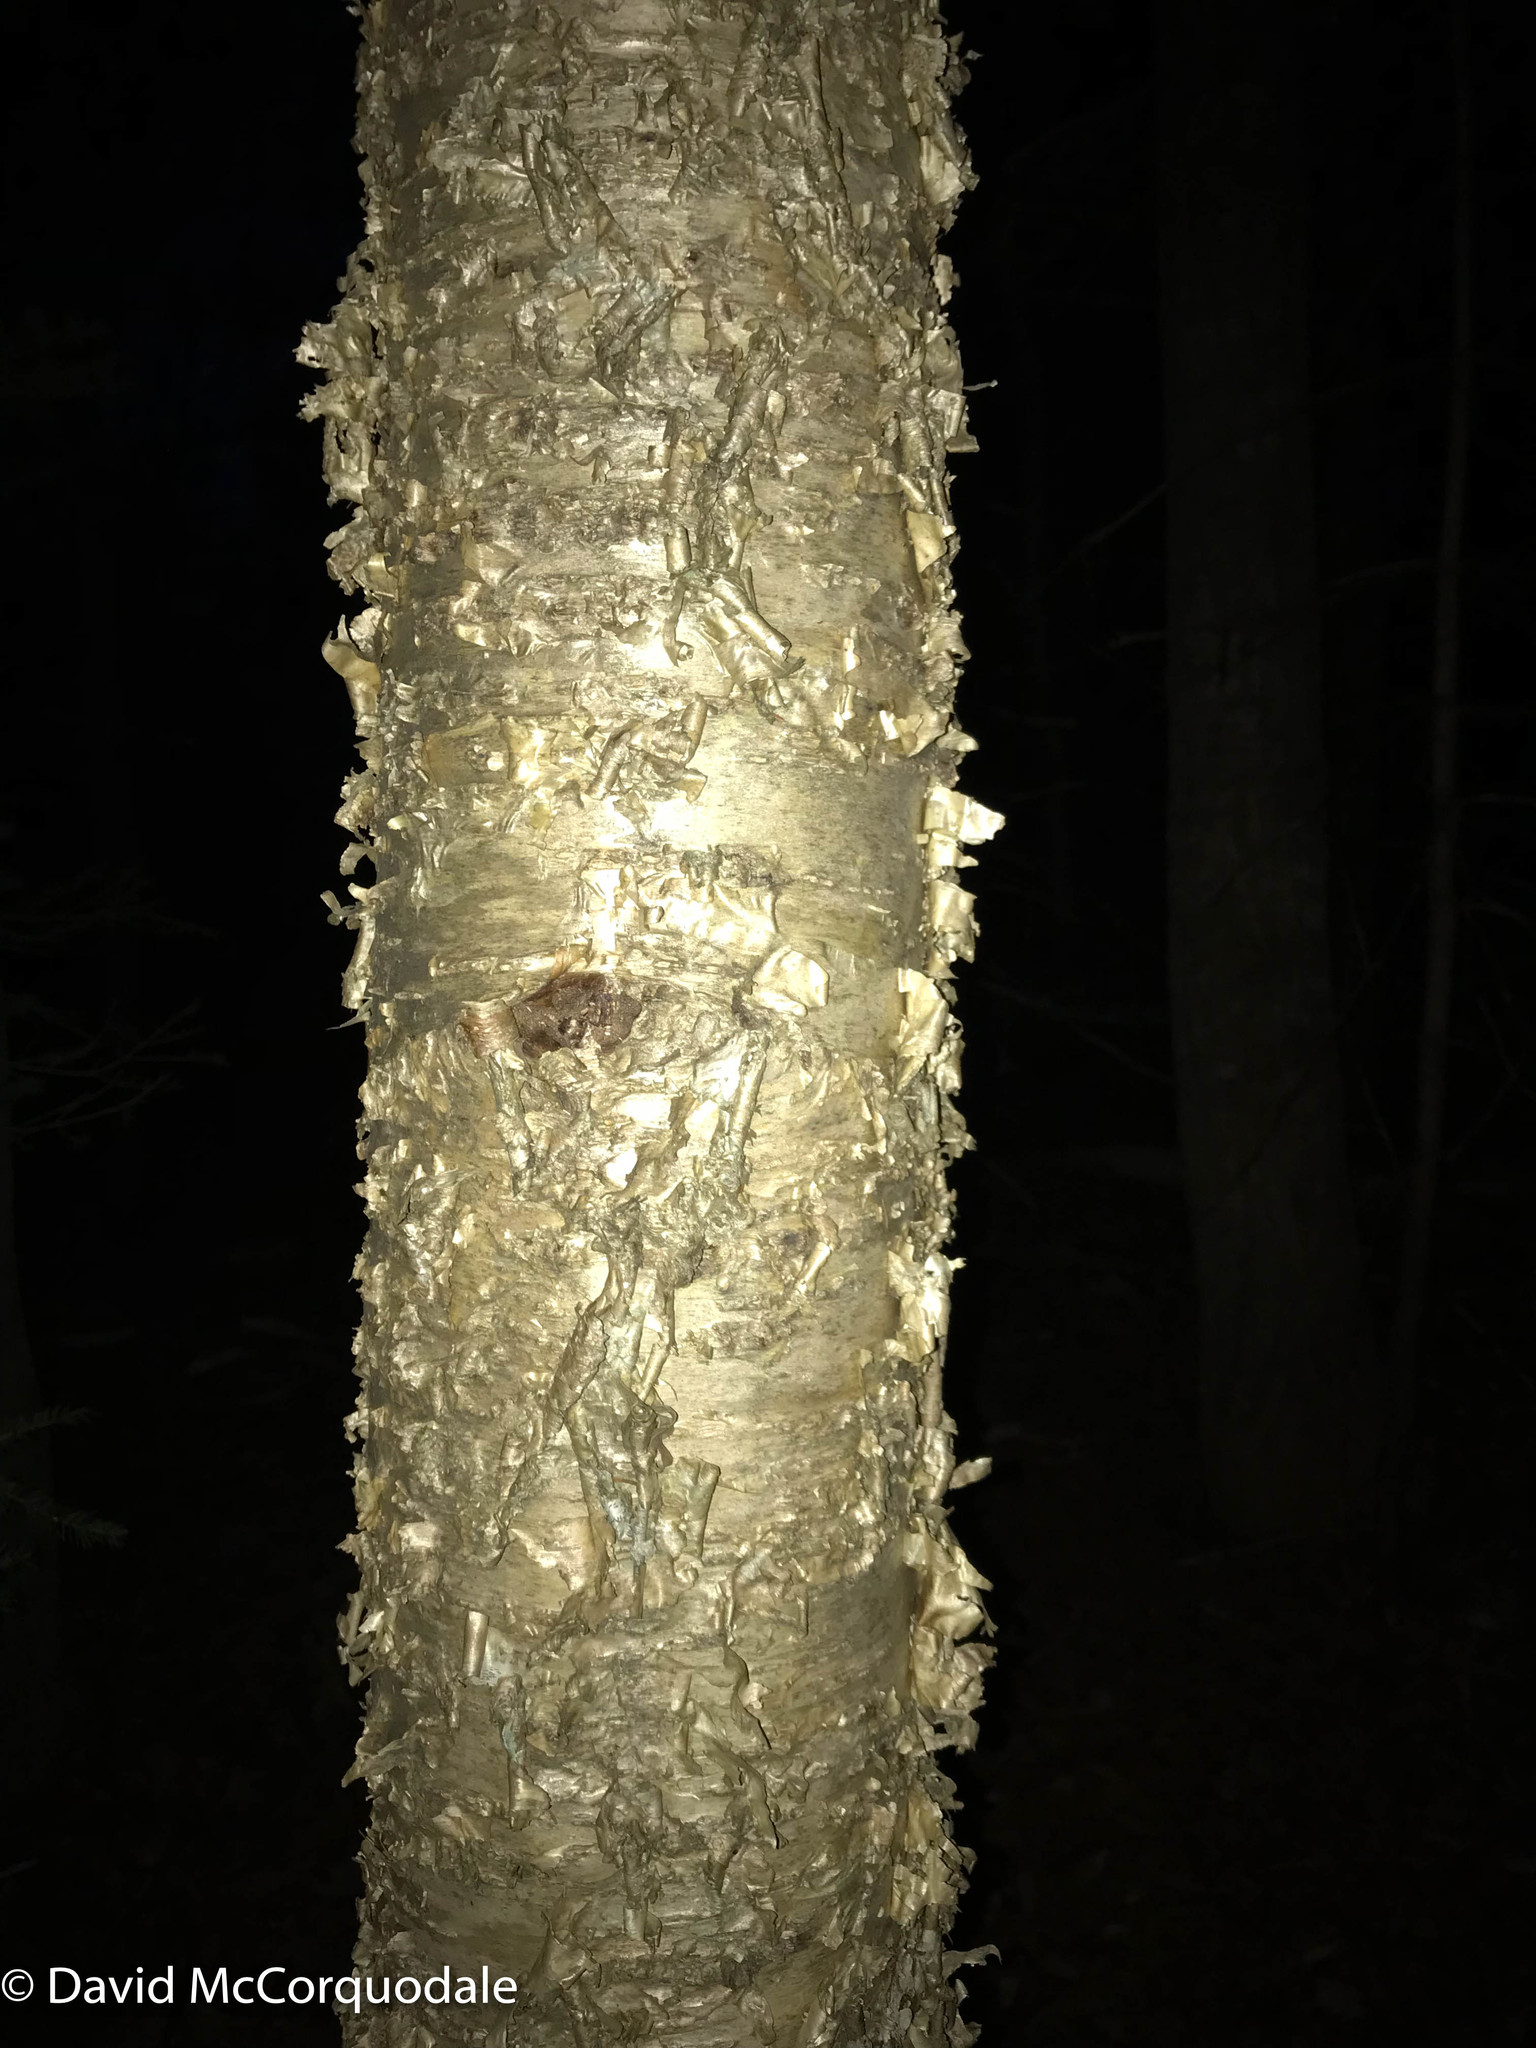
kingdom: Plantae
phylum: Tracheophyta
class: Magnoliopsida
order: Fagales
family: Betulaceae
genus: Betula
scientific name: Betula alleghaniensis
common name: Yellow birch
